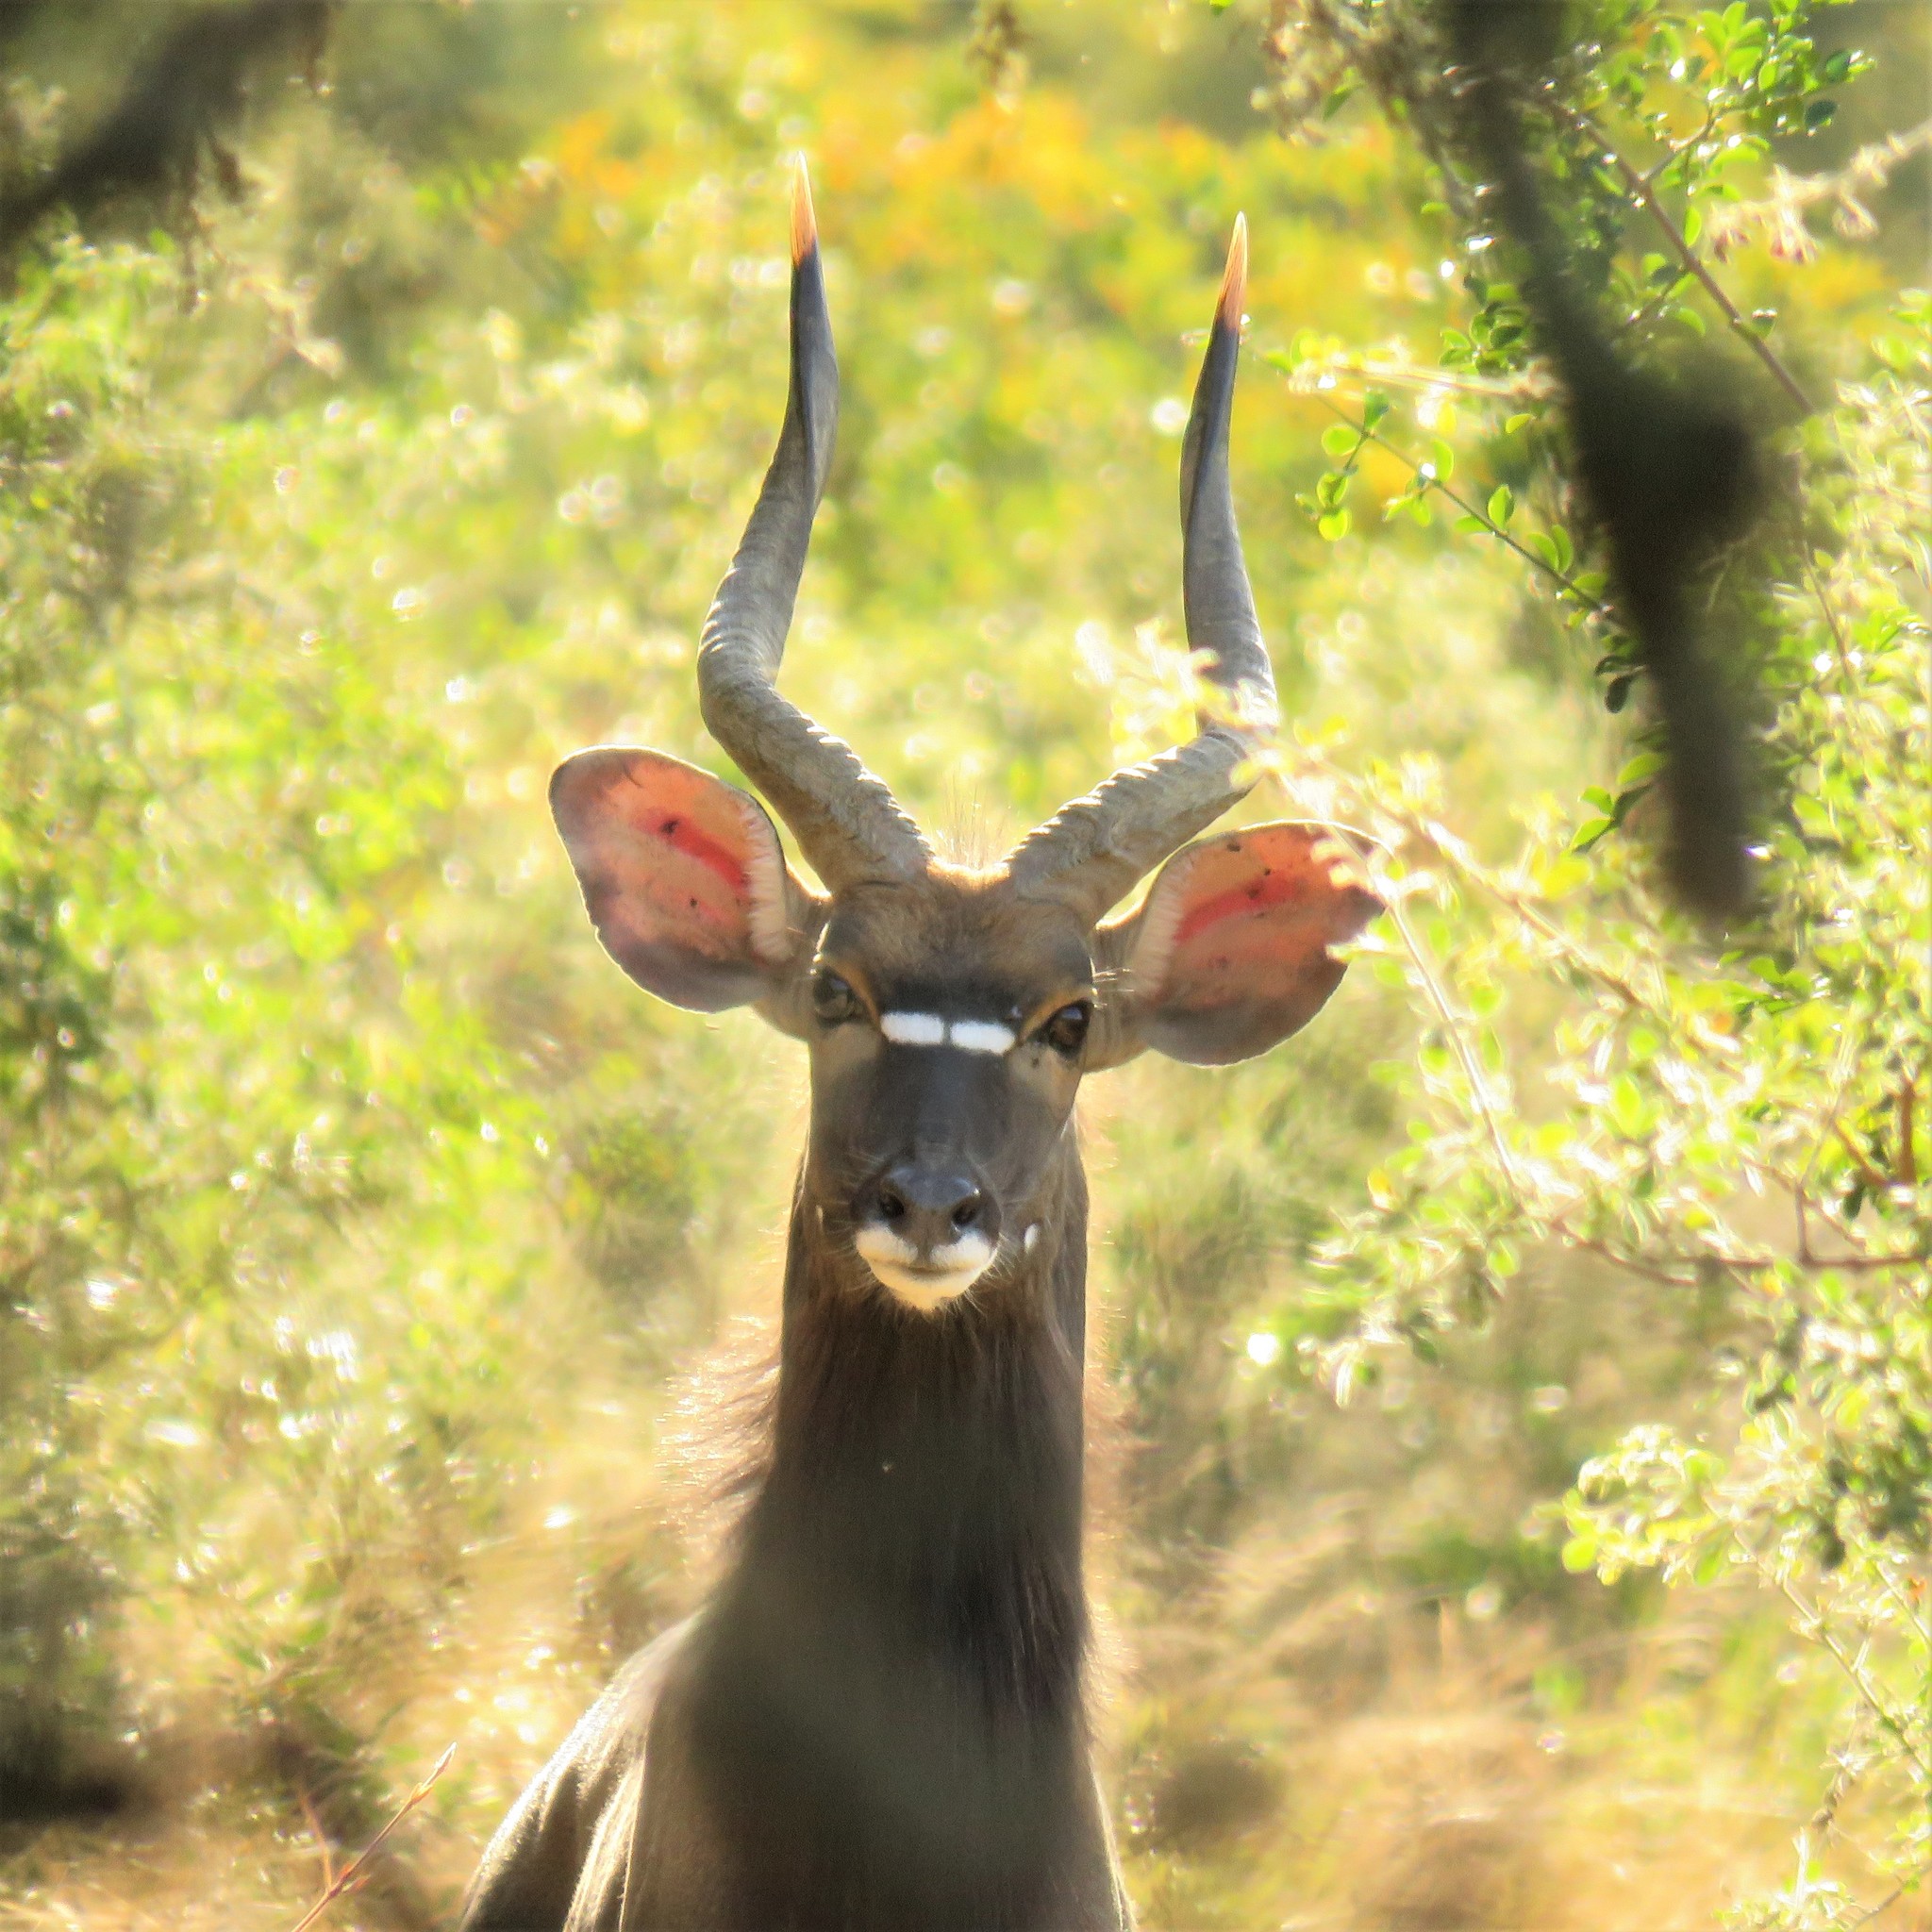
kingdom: Animalia
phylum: Chordata
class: Mammalia
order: Artiodactyla
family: Bovidae
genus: Tragelaphus
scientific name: Tragelaphus angasii
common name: Nyala
